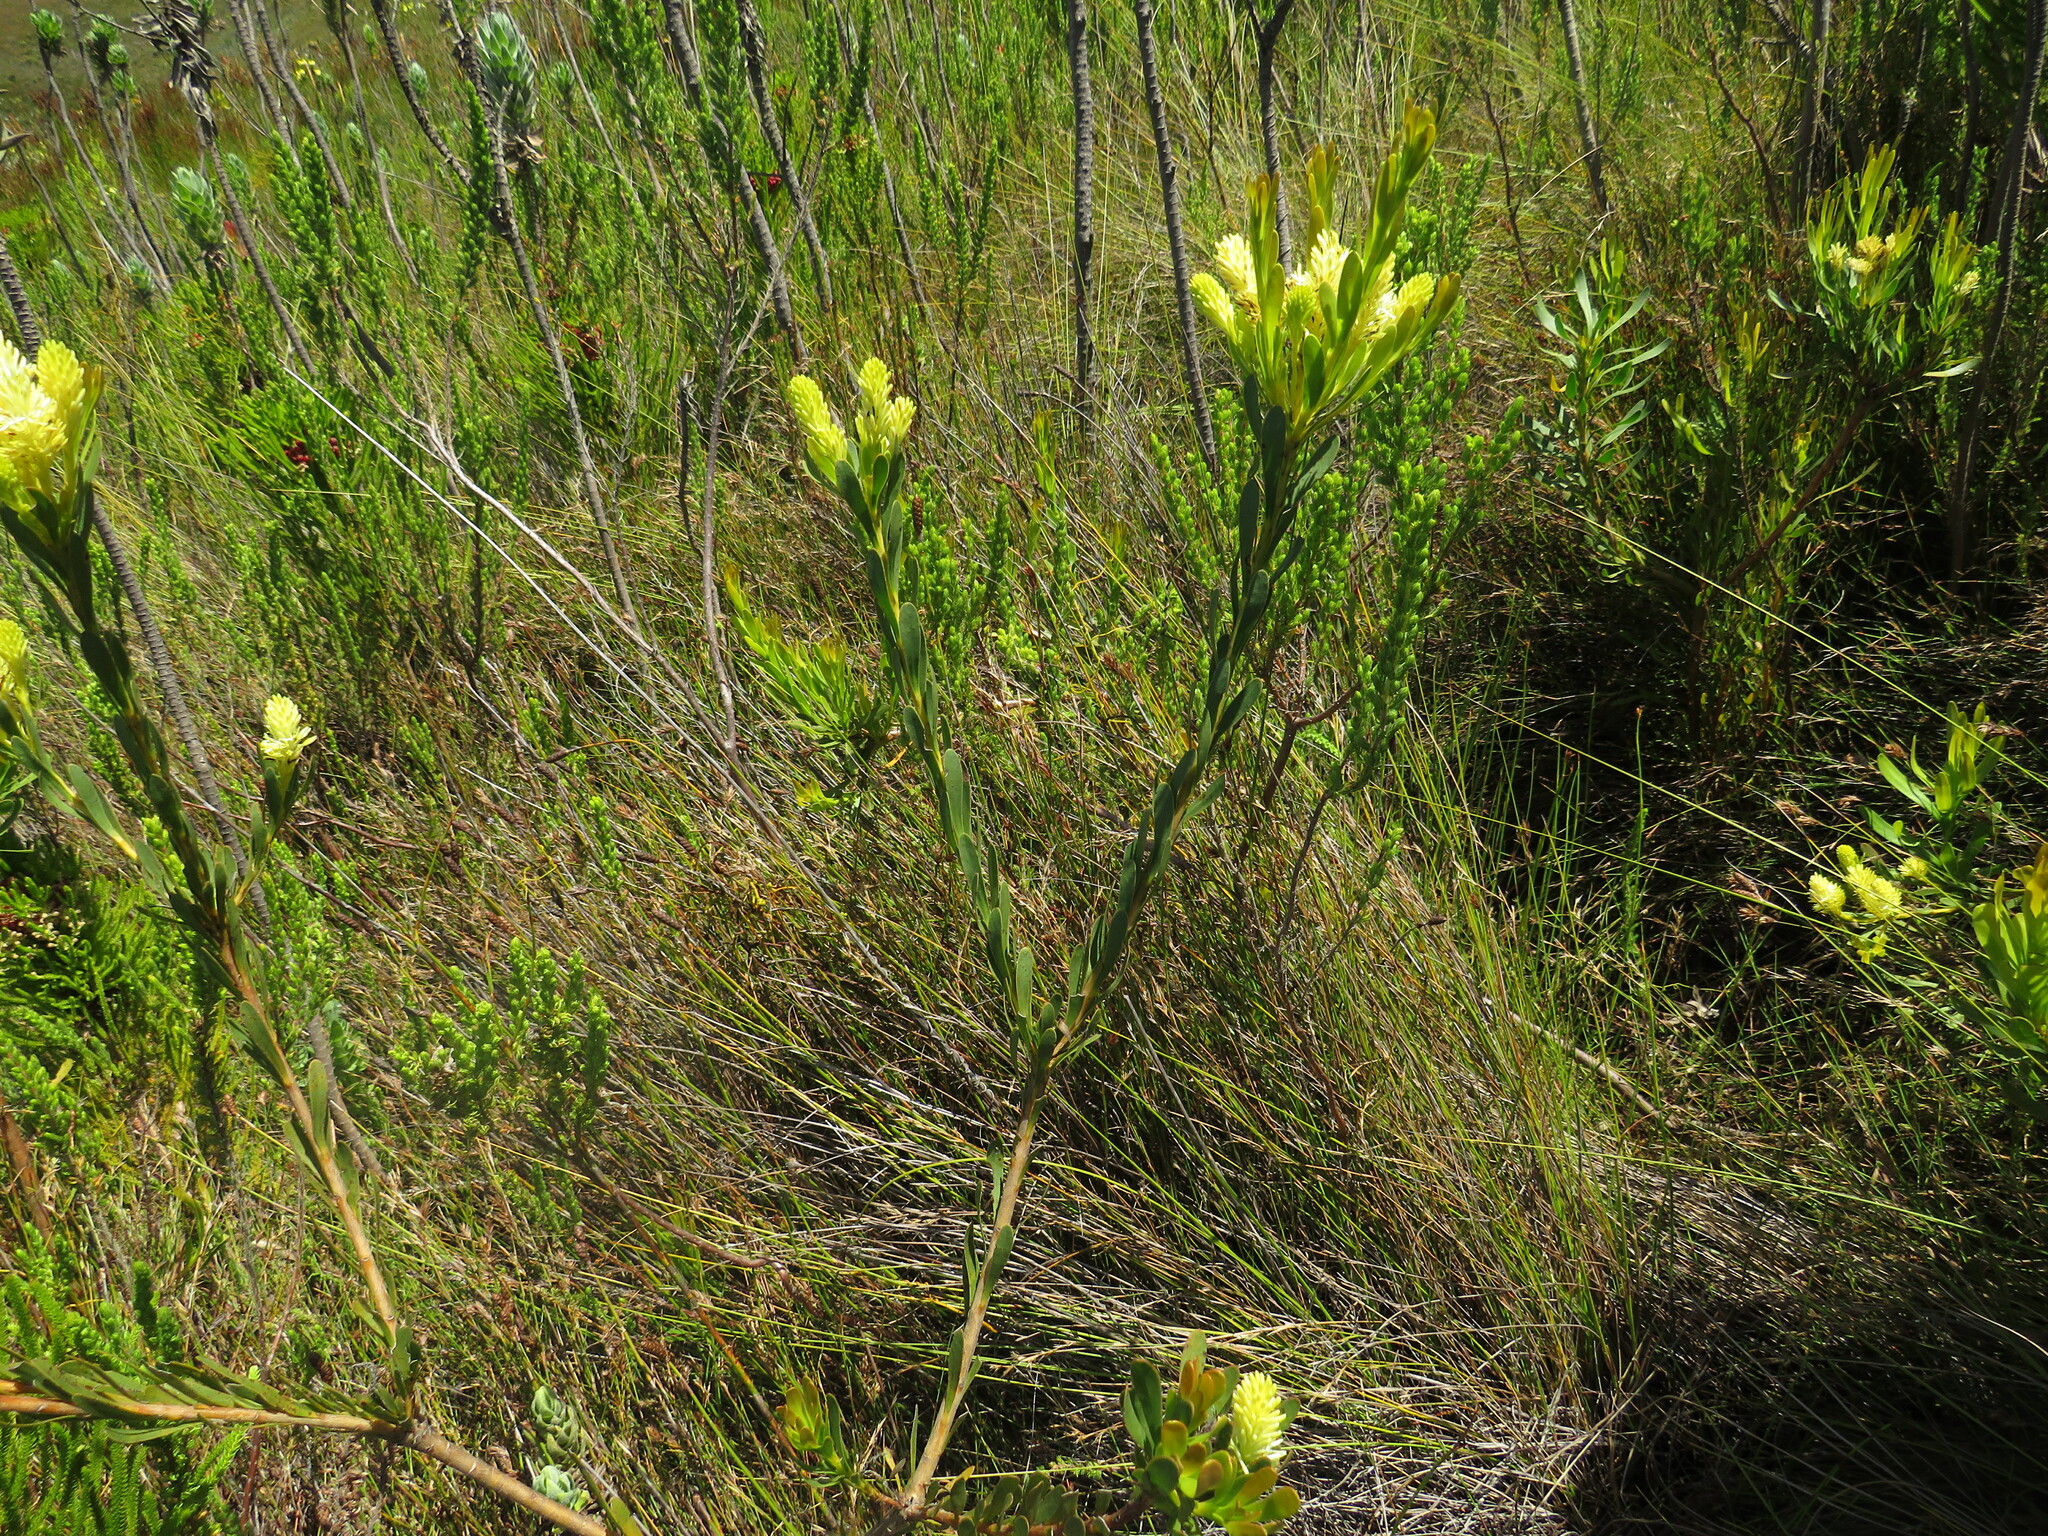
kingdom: Plantae
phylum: Tracheophyta
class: Magnoliopsida
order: Ericales
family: Ericaceae
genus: Erica
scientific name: Erica macowanii
